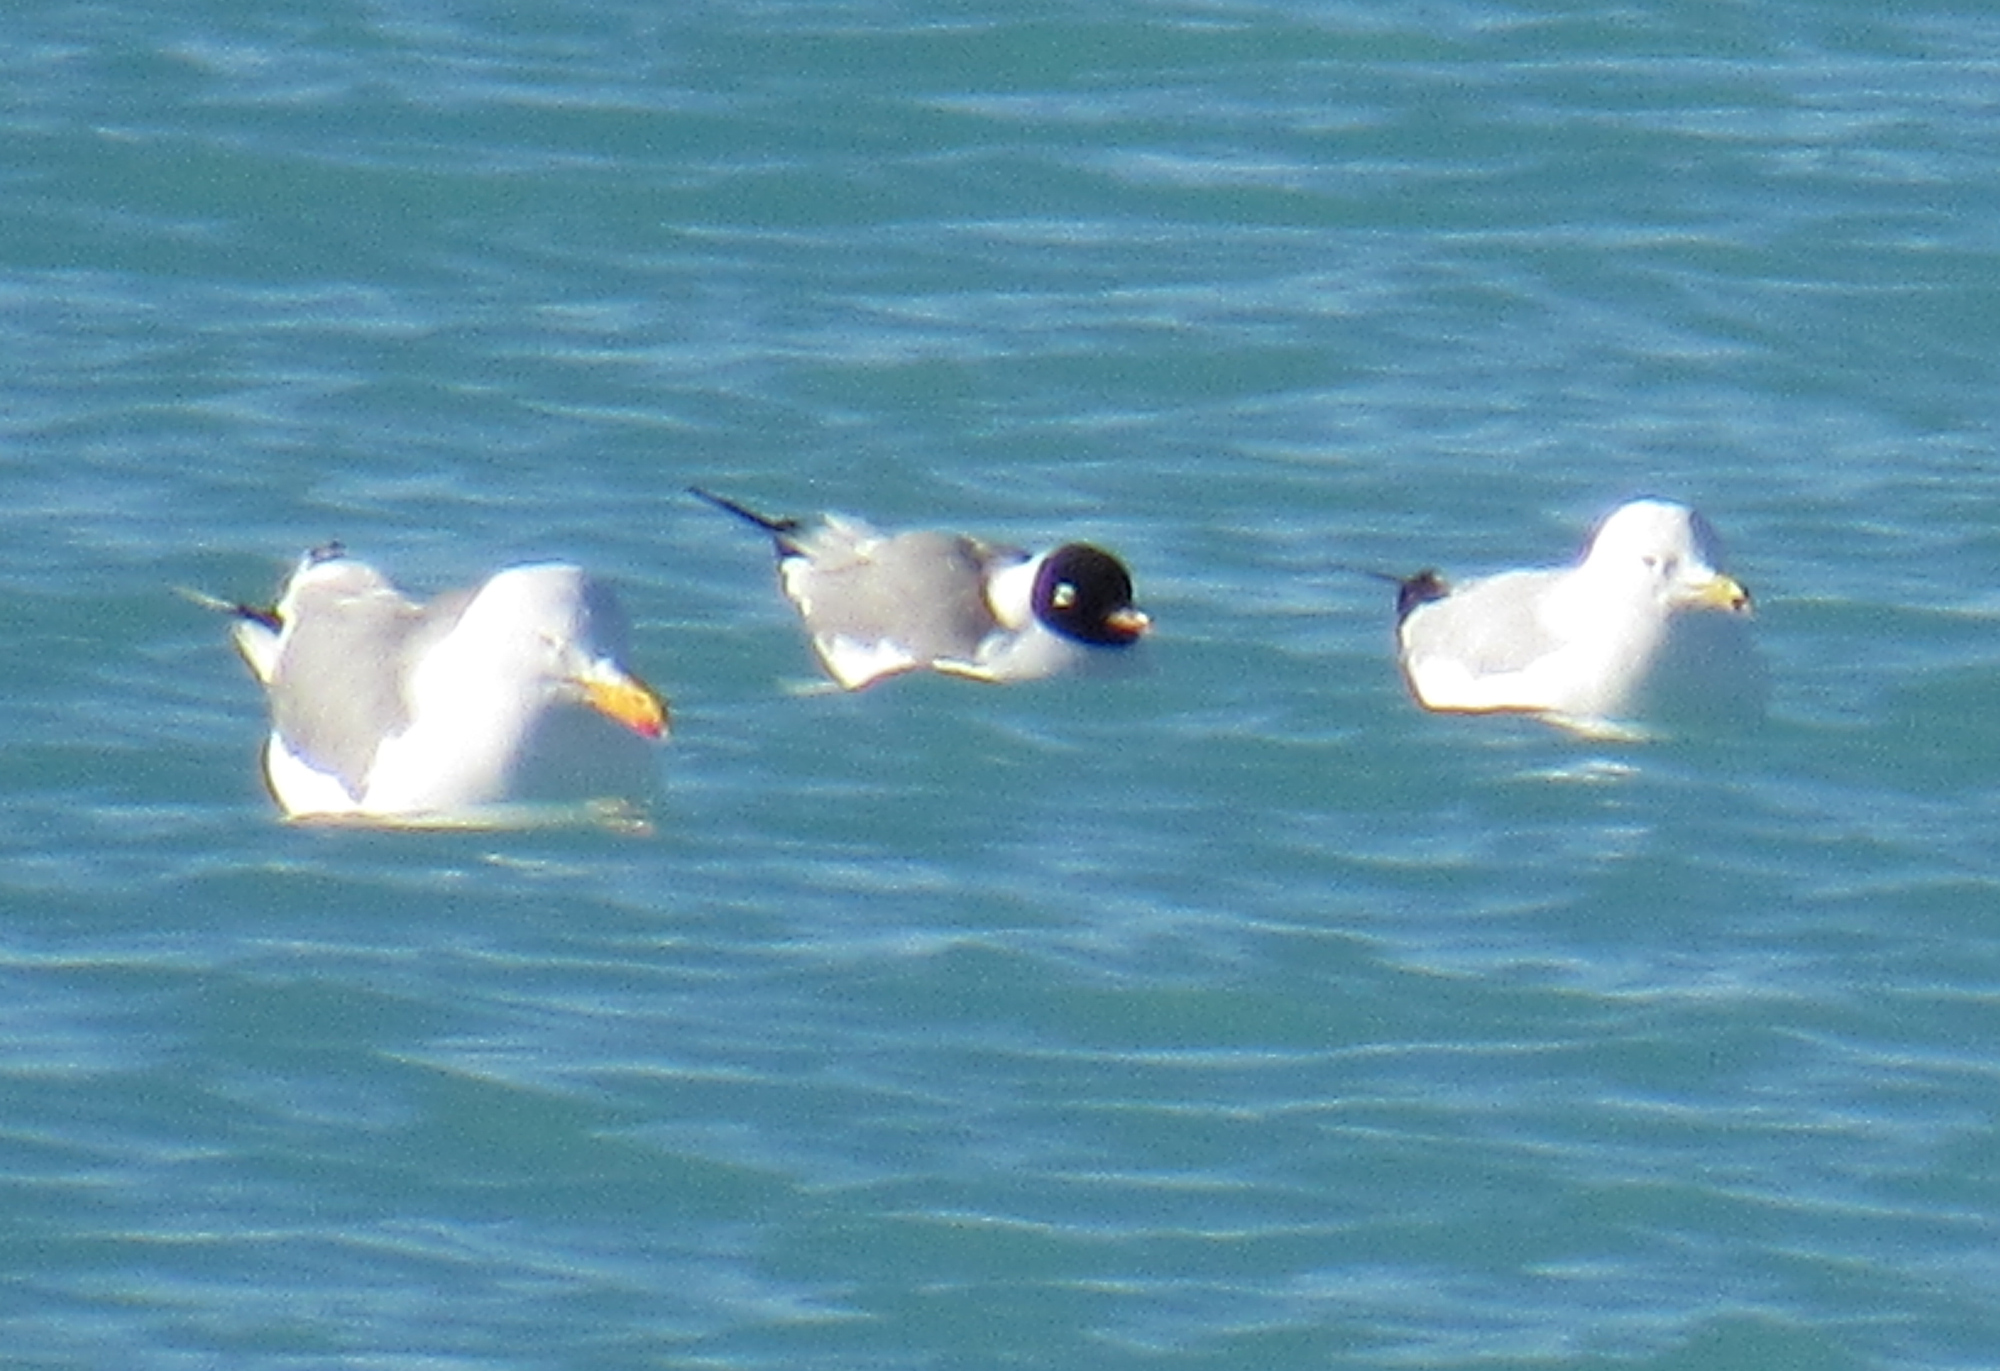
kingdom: Animalia
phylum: Chordata
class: Aves
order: Charadriiformes
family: Laridae
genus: Leucophaeus
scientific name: Leucophaeus pipixcan
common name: Franklin's gull
